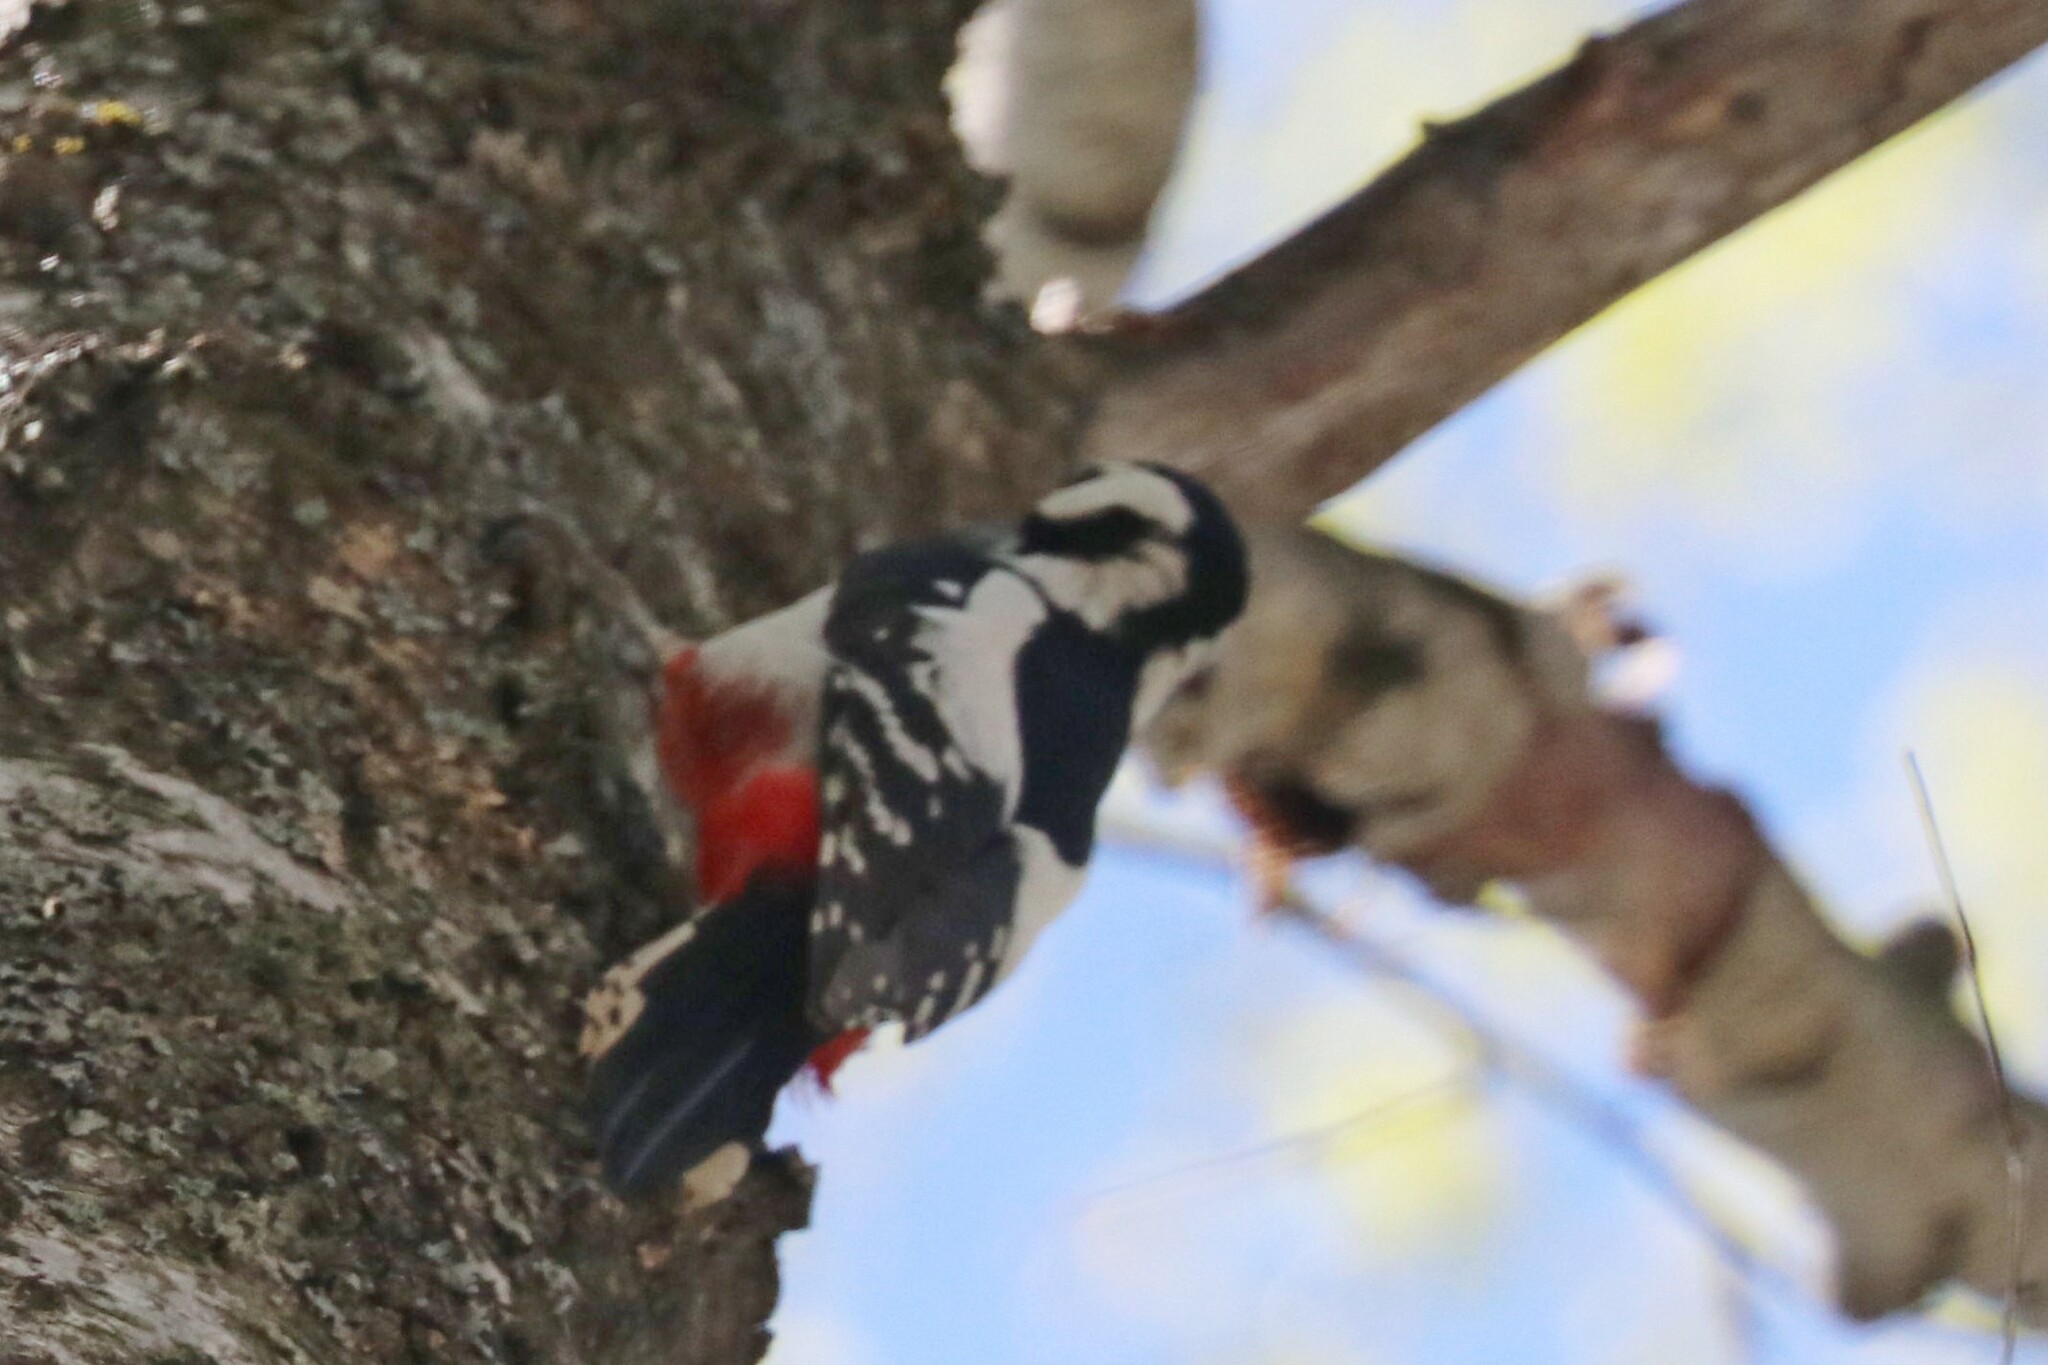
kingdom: Animalia
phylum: Chordata
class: Aves
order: Piciformes
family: Picidae
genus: Dendrocopos
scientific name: Dendrocopos major
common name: Great spotted woodpecker
